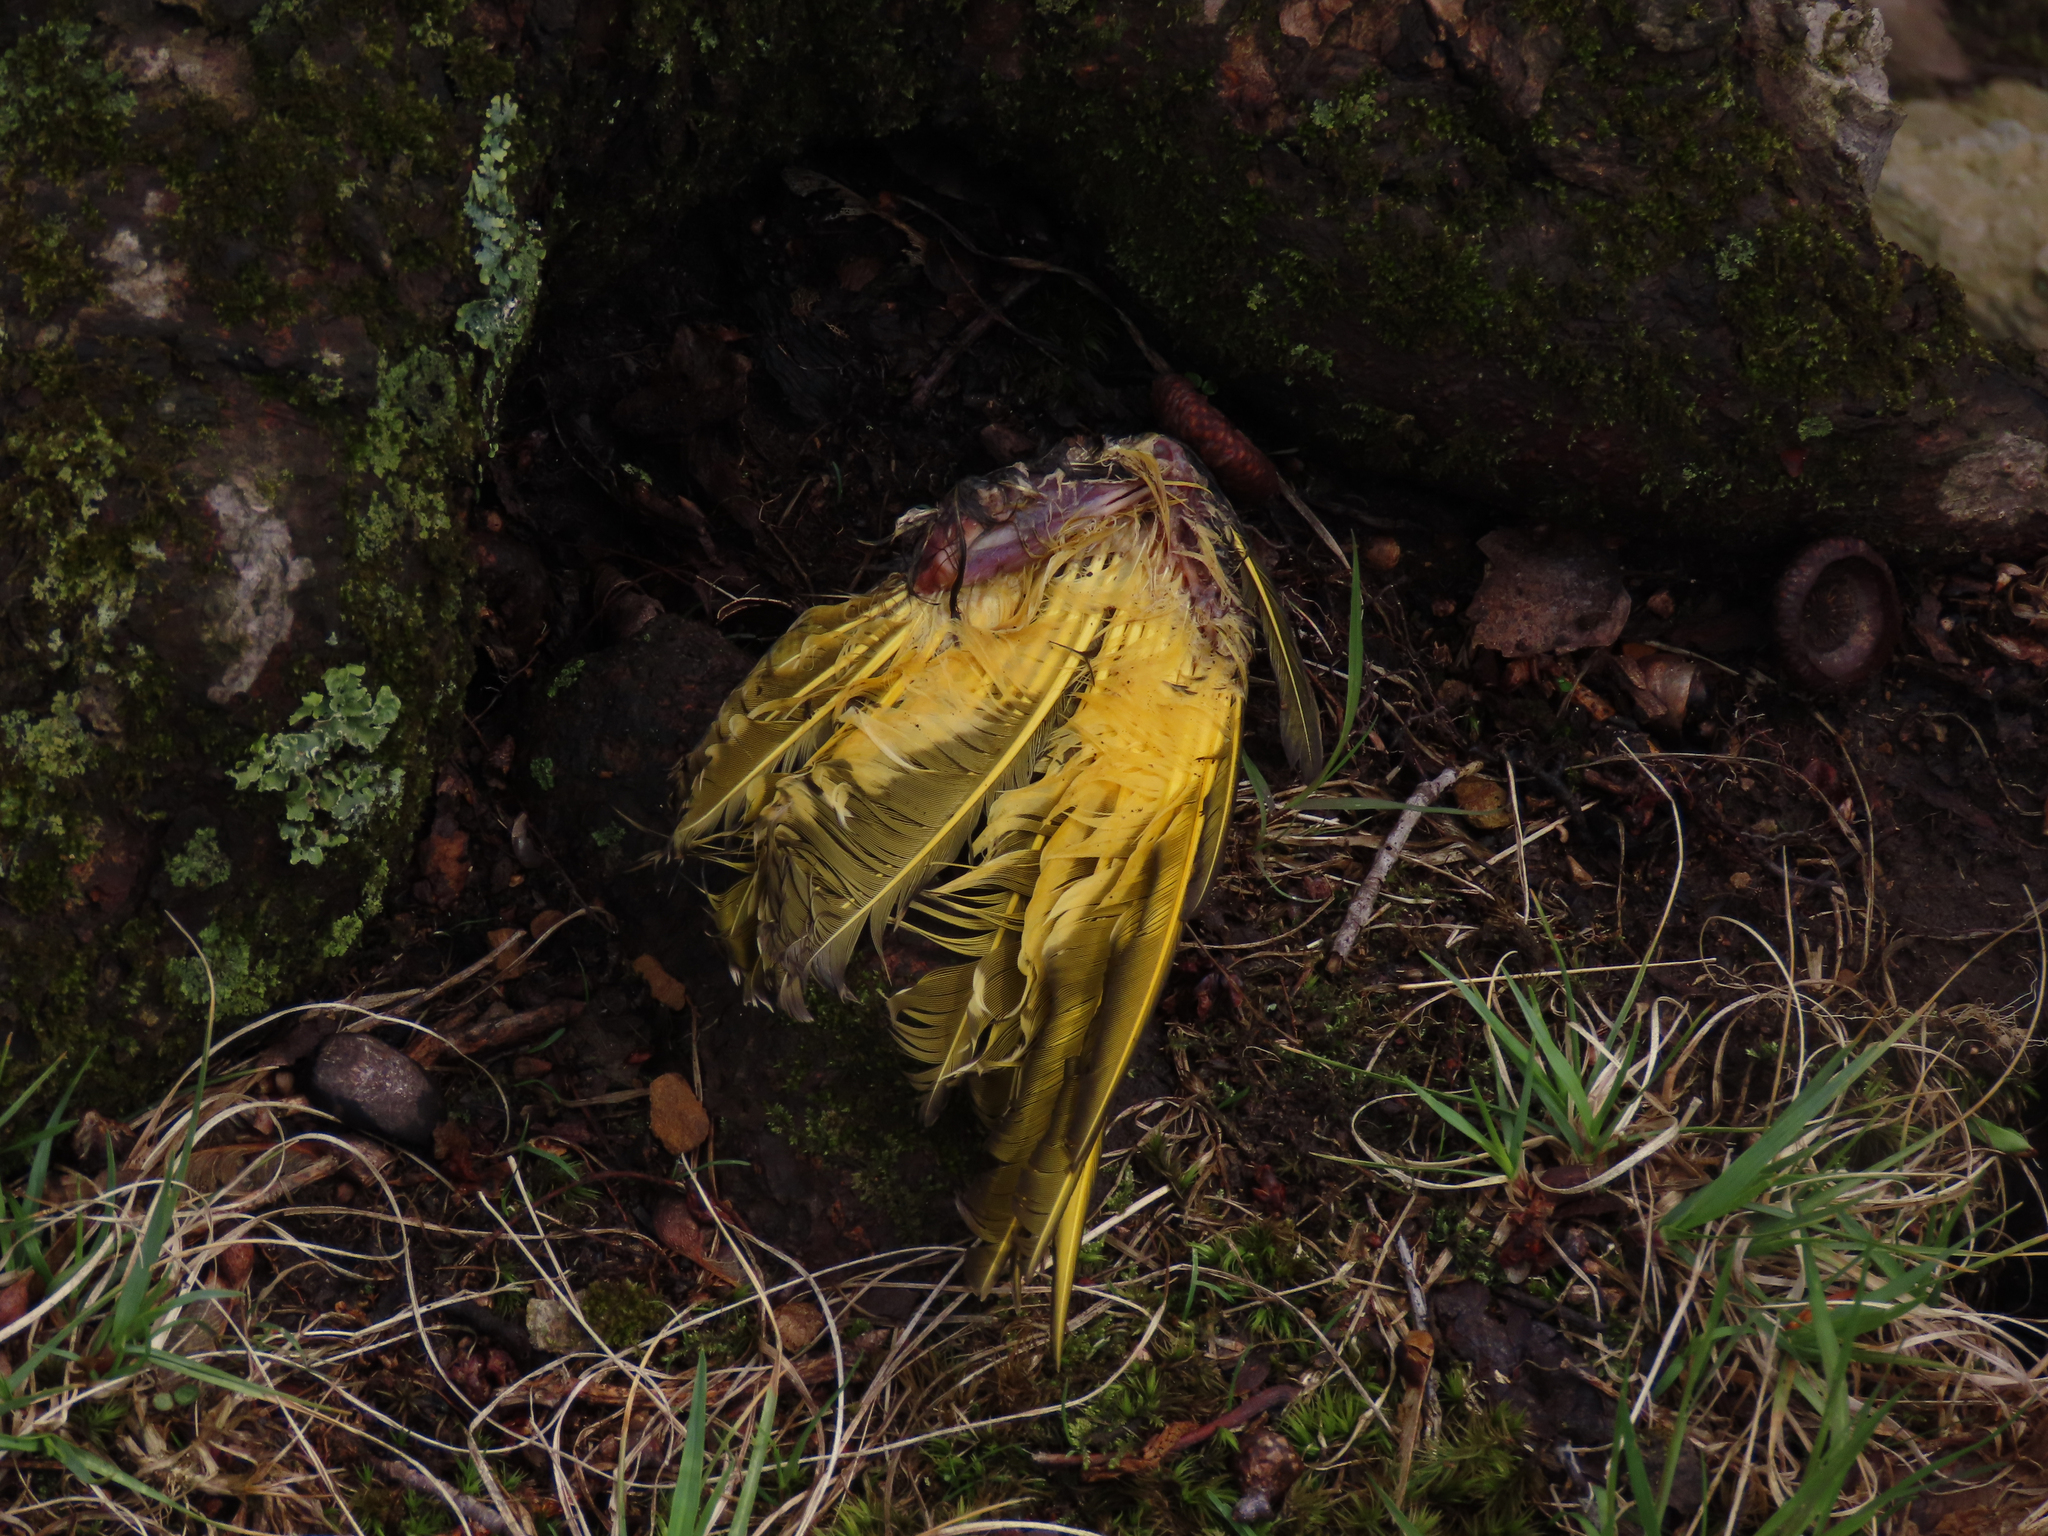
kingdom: Animalia
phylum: Chordata
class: Aves
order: Piciformes
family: Picidae
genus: Colaptes
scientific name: Colaptes auratus
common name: Northern flicker
